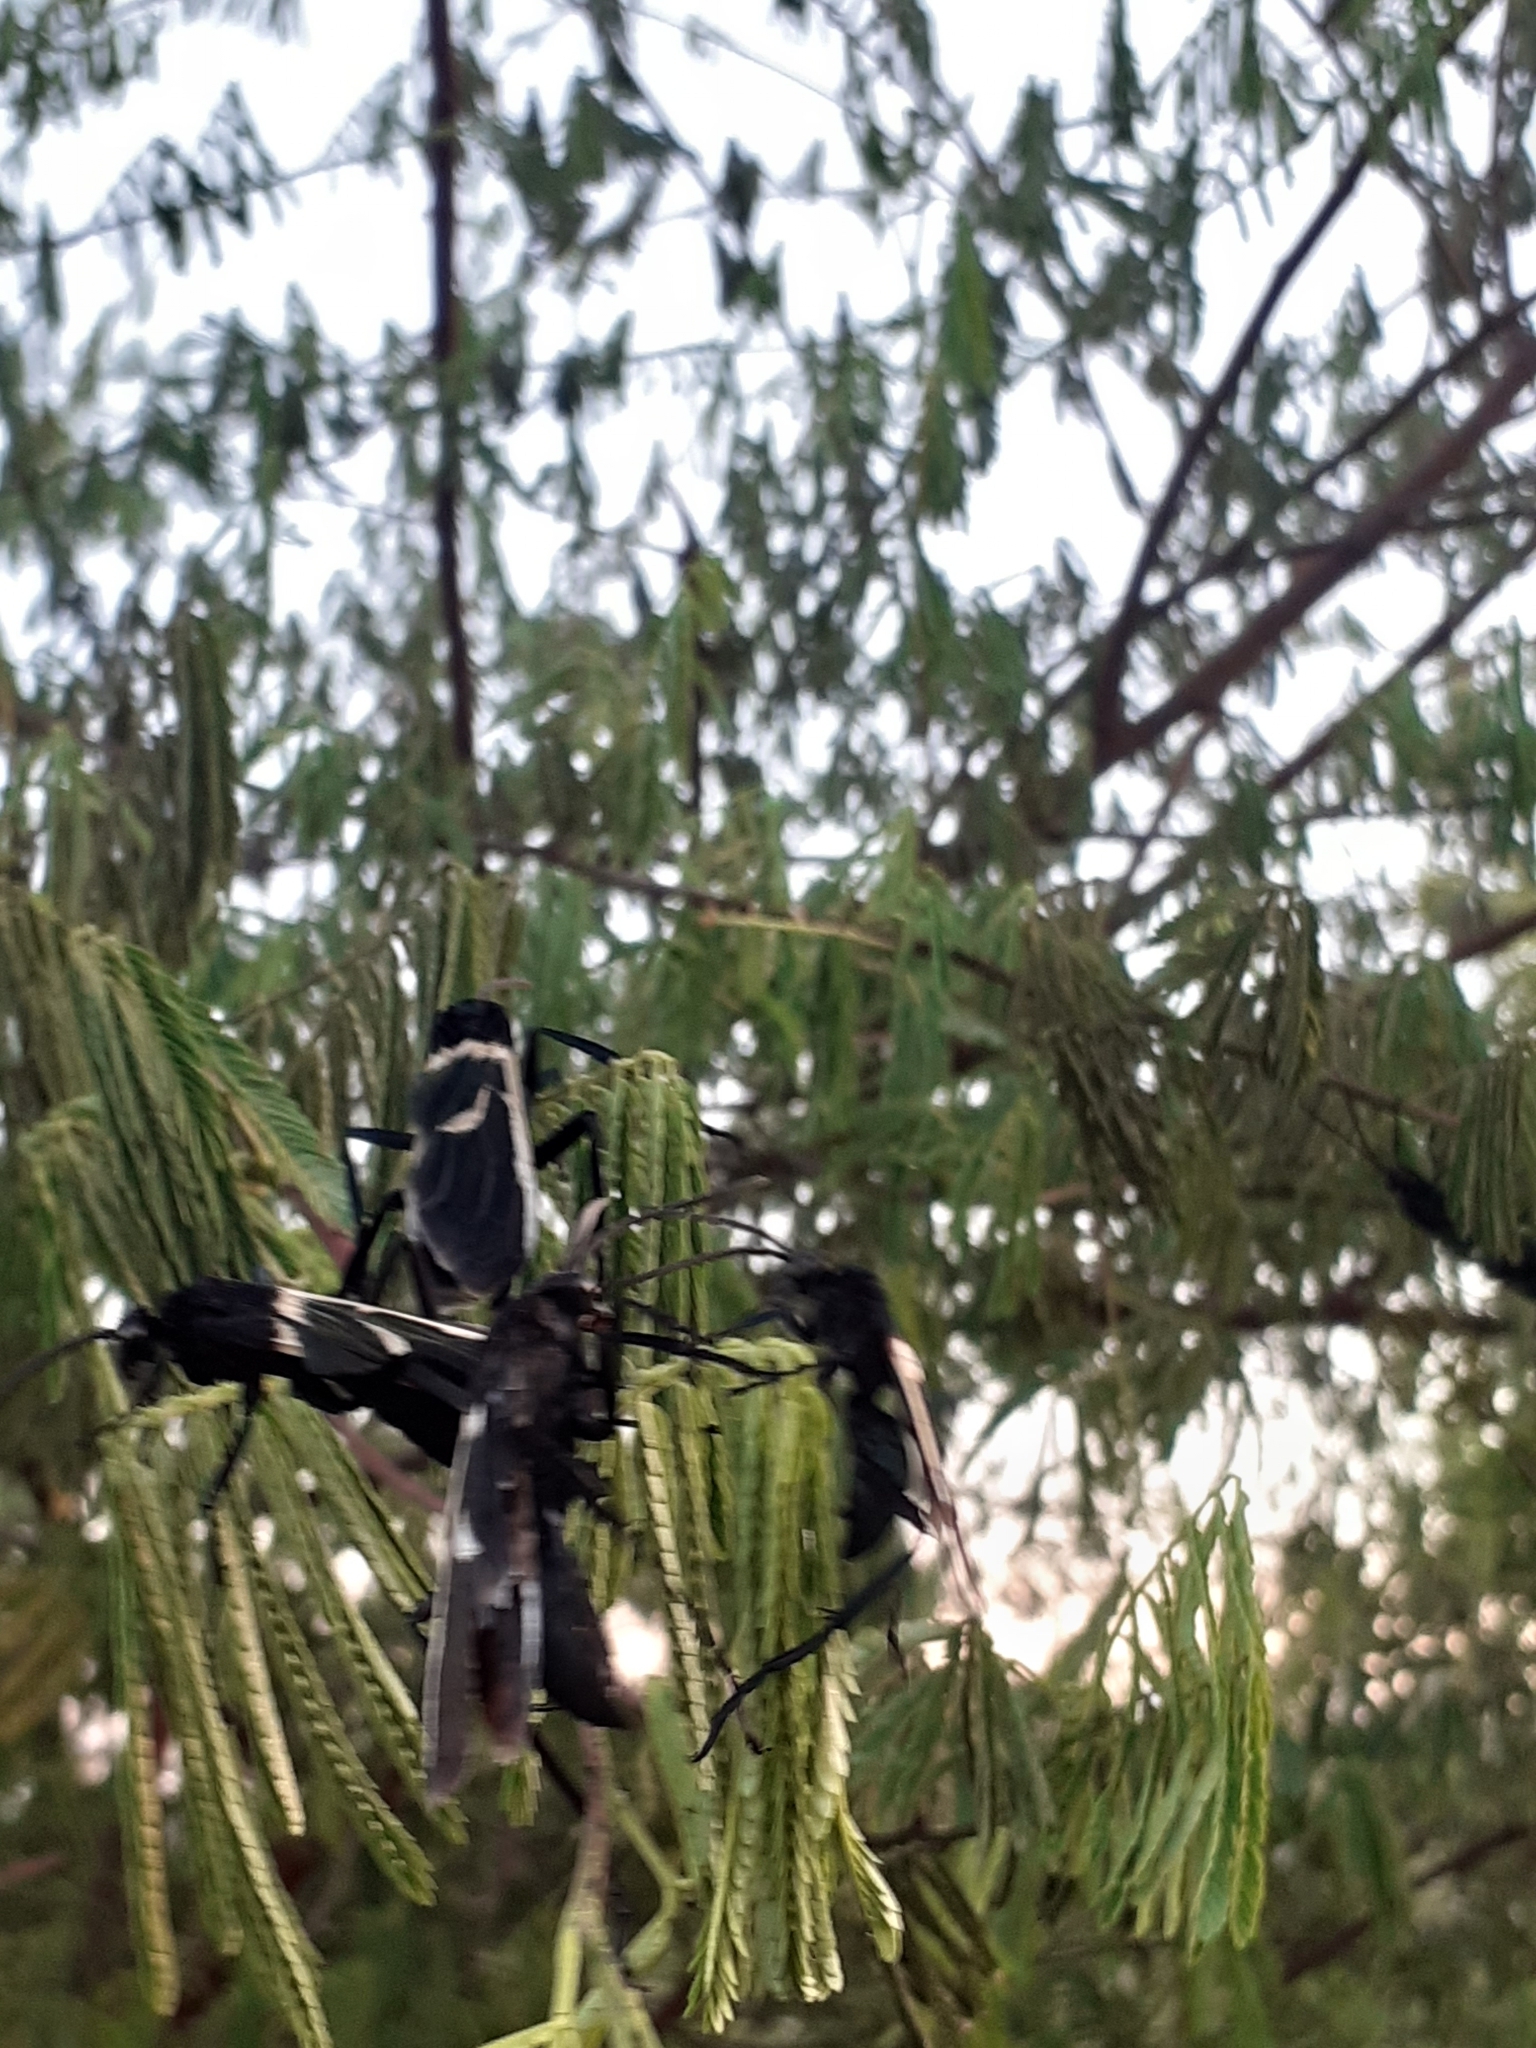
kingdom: Animalia
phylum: Arthropoda
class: Insecta
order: Hymenoptera
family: Pompilidae
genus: Pepsis
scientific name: Pepsis decorata
